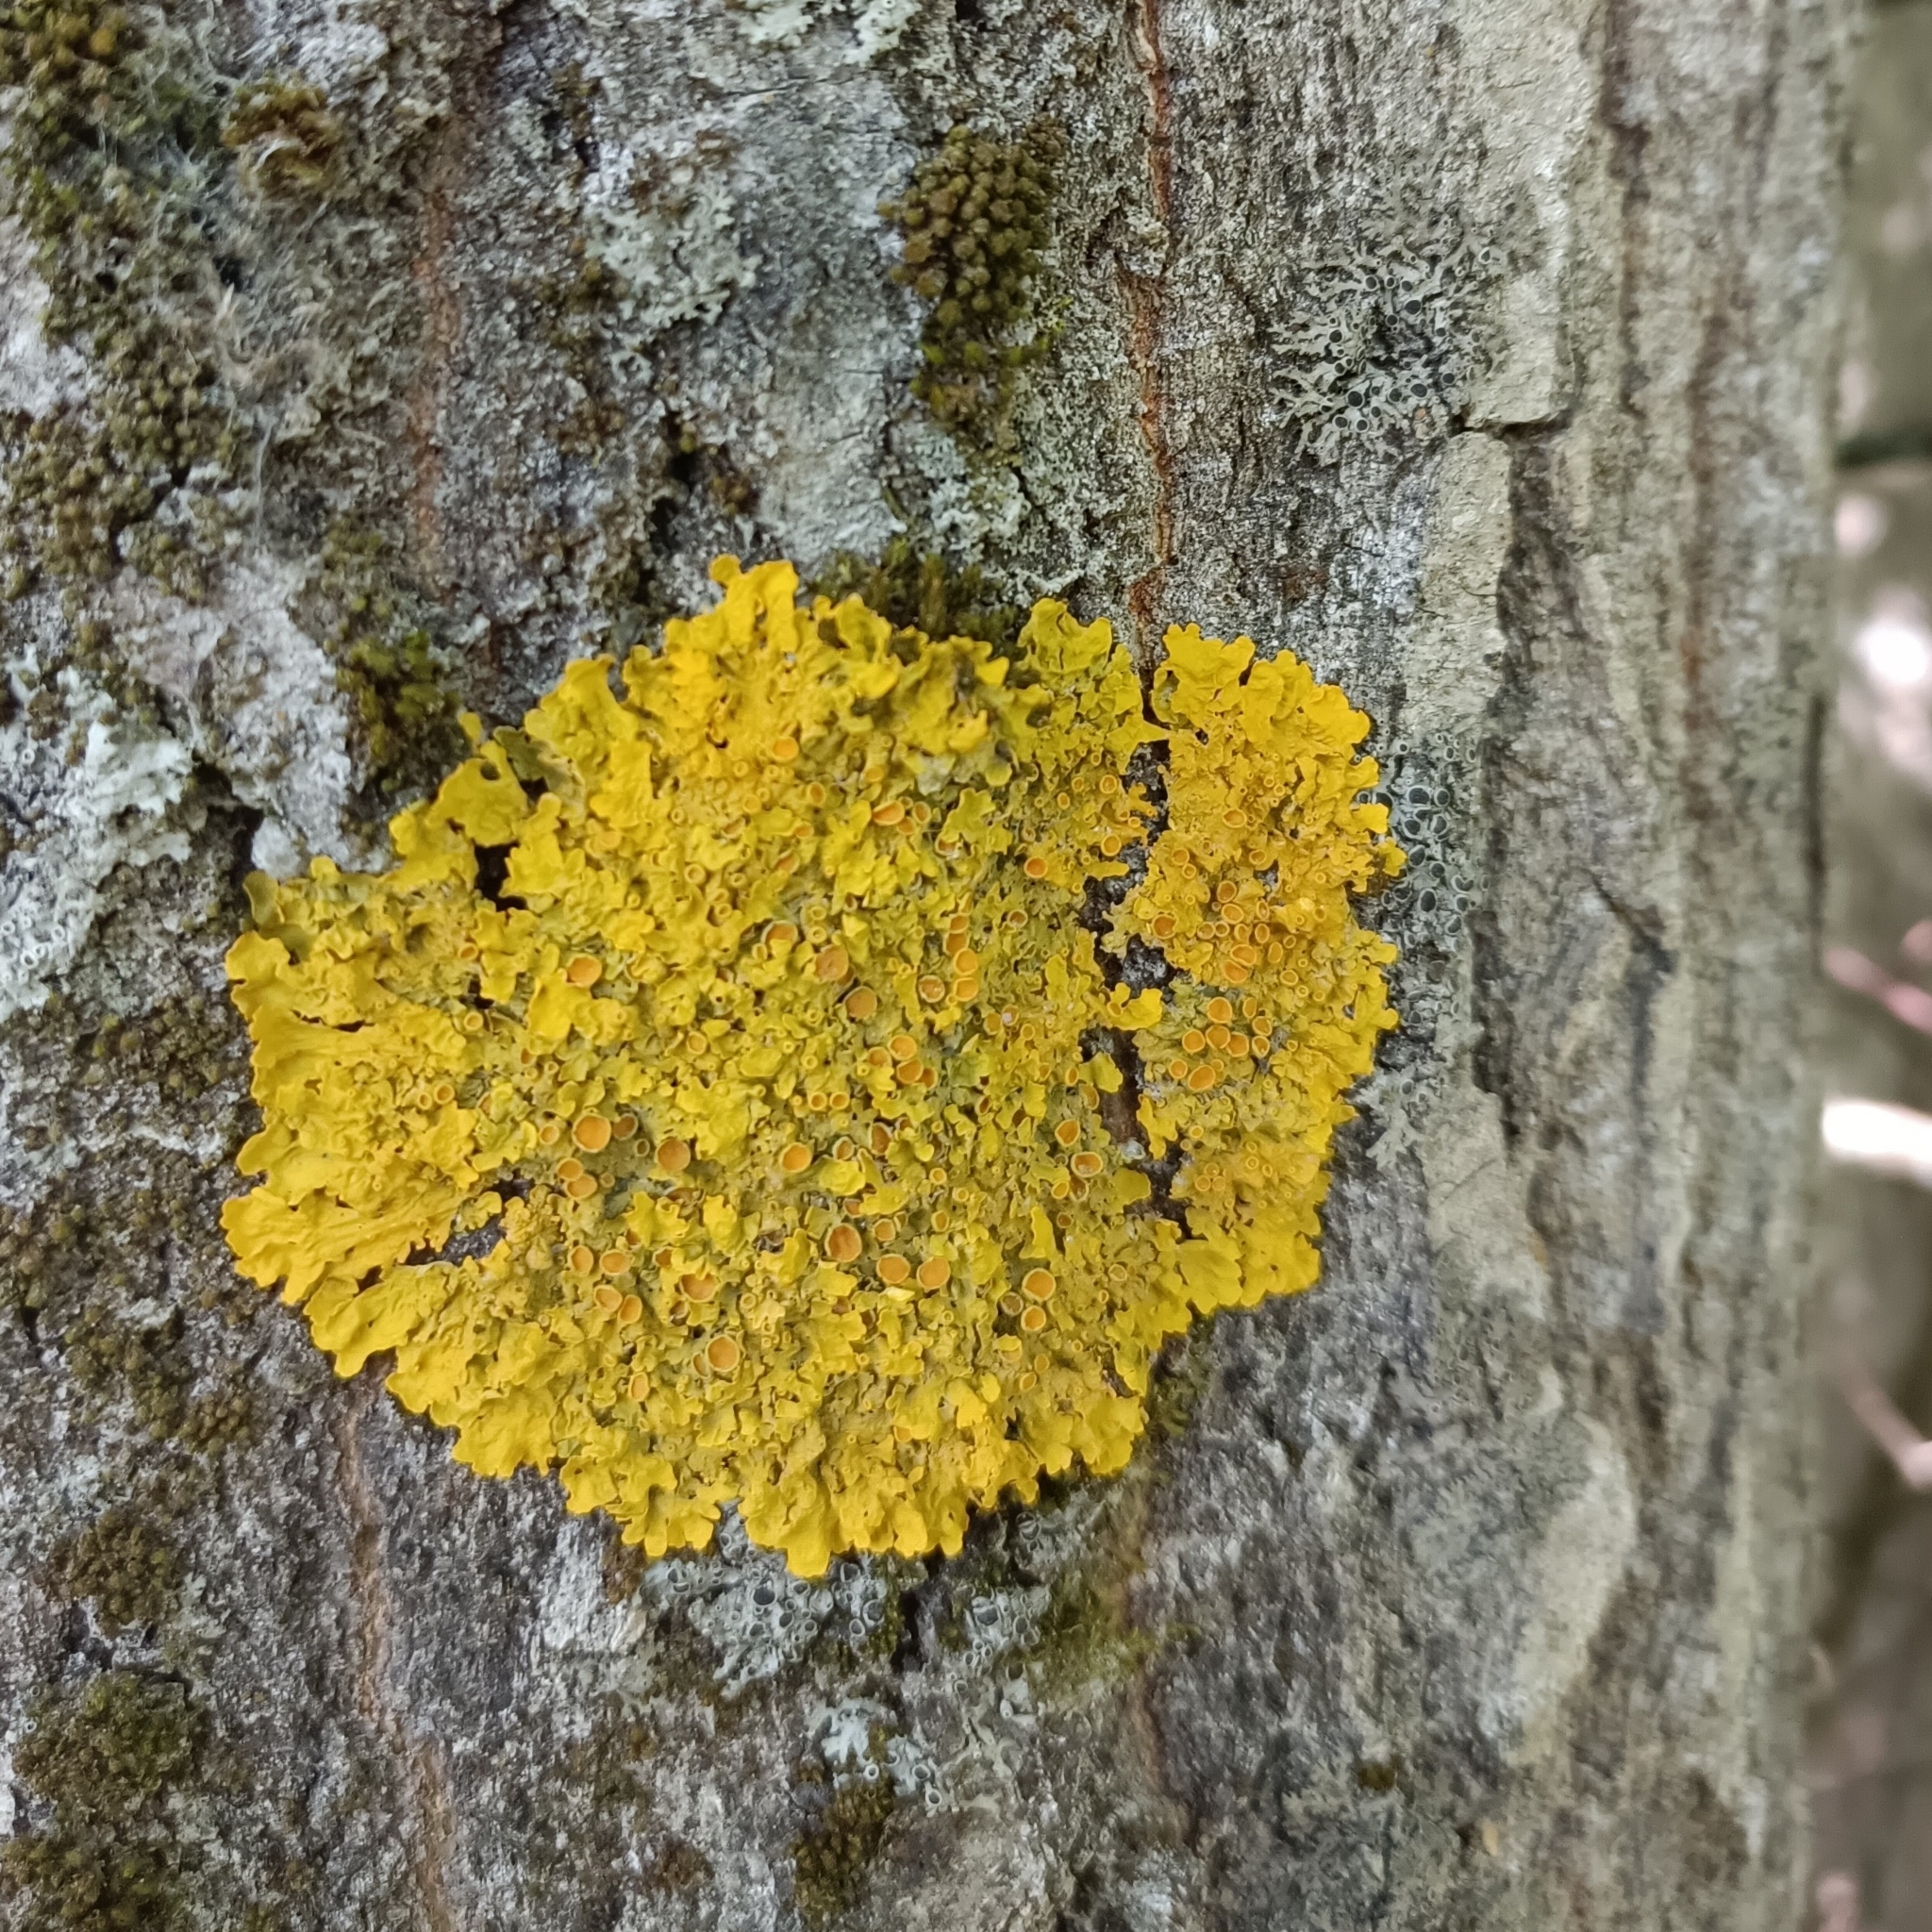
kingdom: Fungi
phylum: Ascomycota
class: Lecanoromycetes
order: Teloschistales
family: Teloschistaceae
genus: Xanthoria
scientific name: Xanthoria parietina
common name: Common orange lichen
